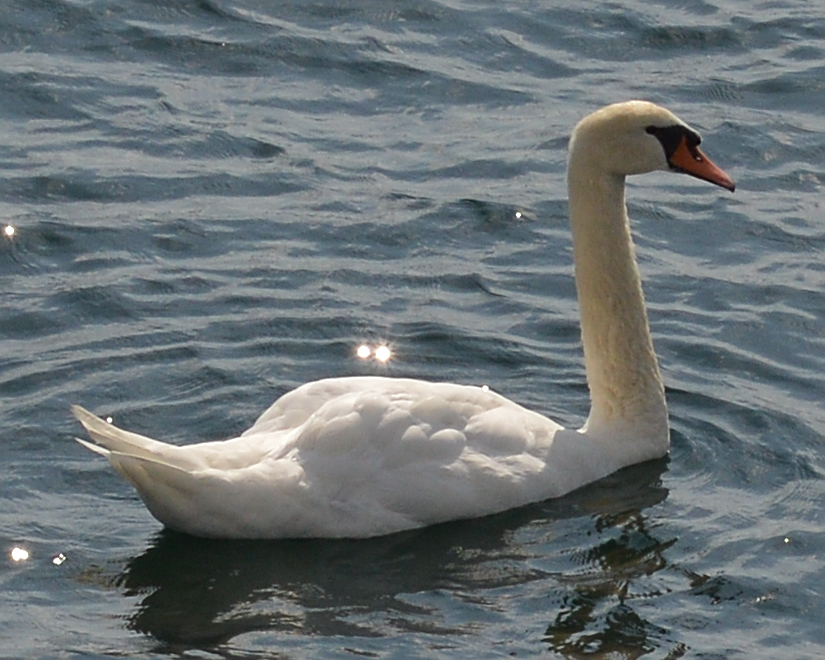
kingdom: Animalia
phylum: Chordata
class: Aves
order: Anseriformes
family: Anatidae
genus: Cygnus
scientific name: Cygnus olor
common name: Mute swan
